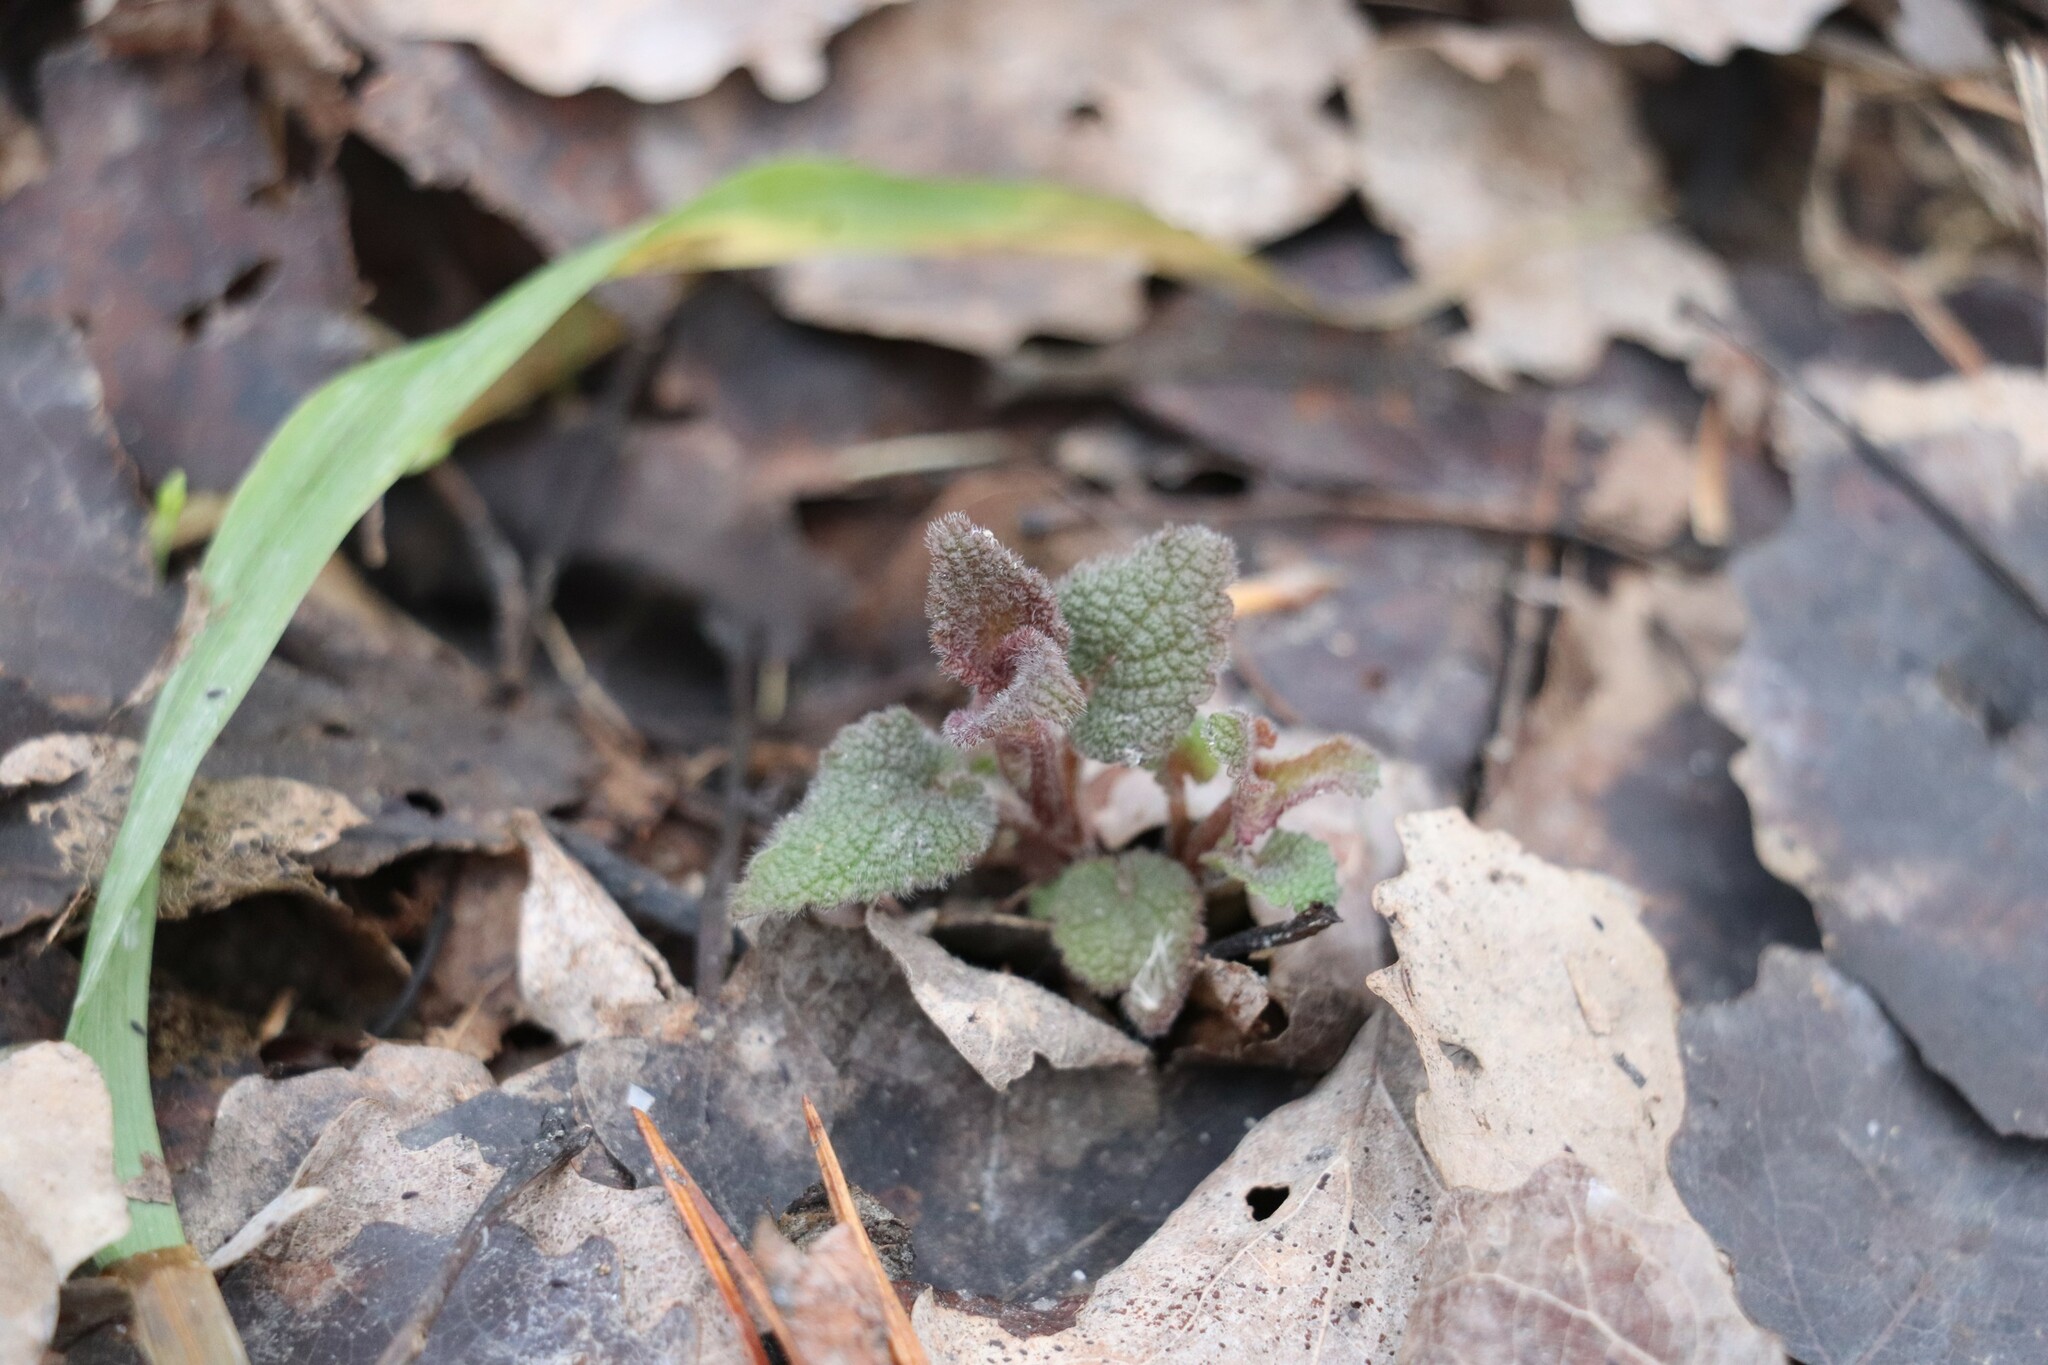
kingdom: Plantae
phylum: Tracheophyta
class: Magnoliopsida
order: Lamiales
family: Lamiaceae
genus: Lamium
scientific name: Lamium album
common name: White dead-nettle
